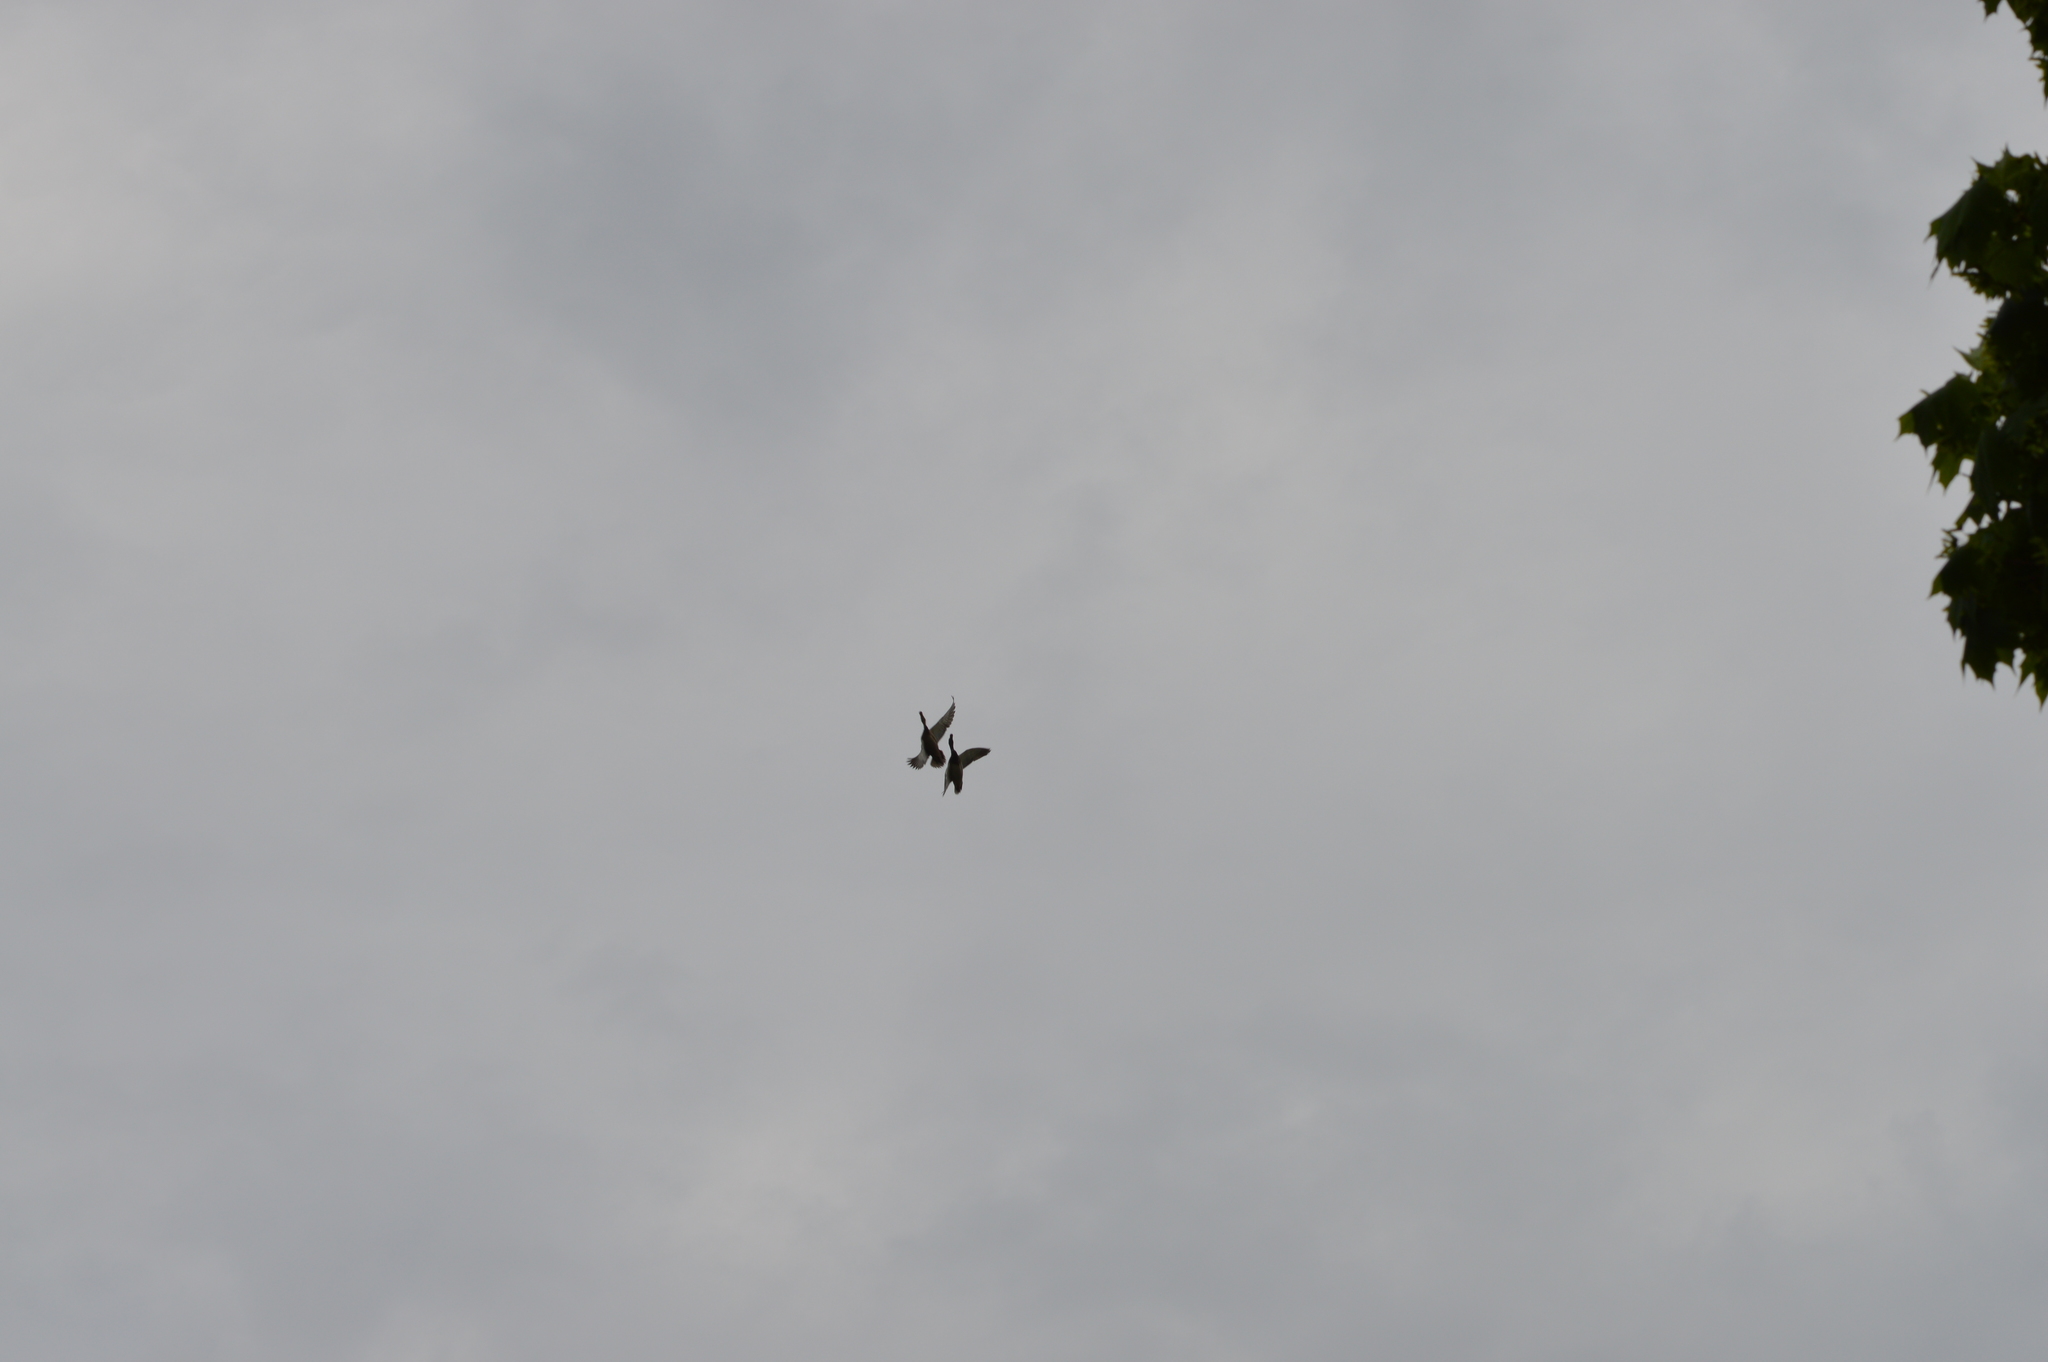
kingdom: Animalia
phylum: Chordata
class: Aves
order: Anseriformes
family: Anatidae
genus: Anas
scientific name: Anas platyrhynchos
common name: Mallard
